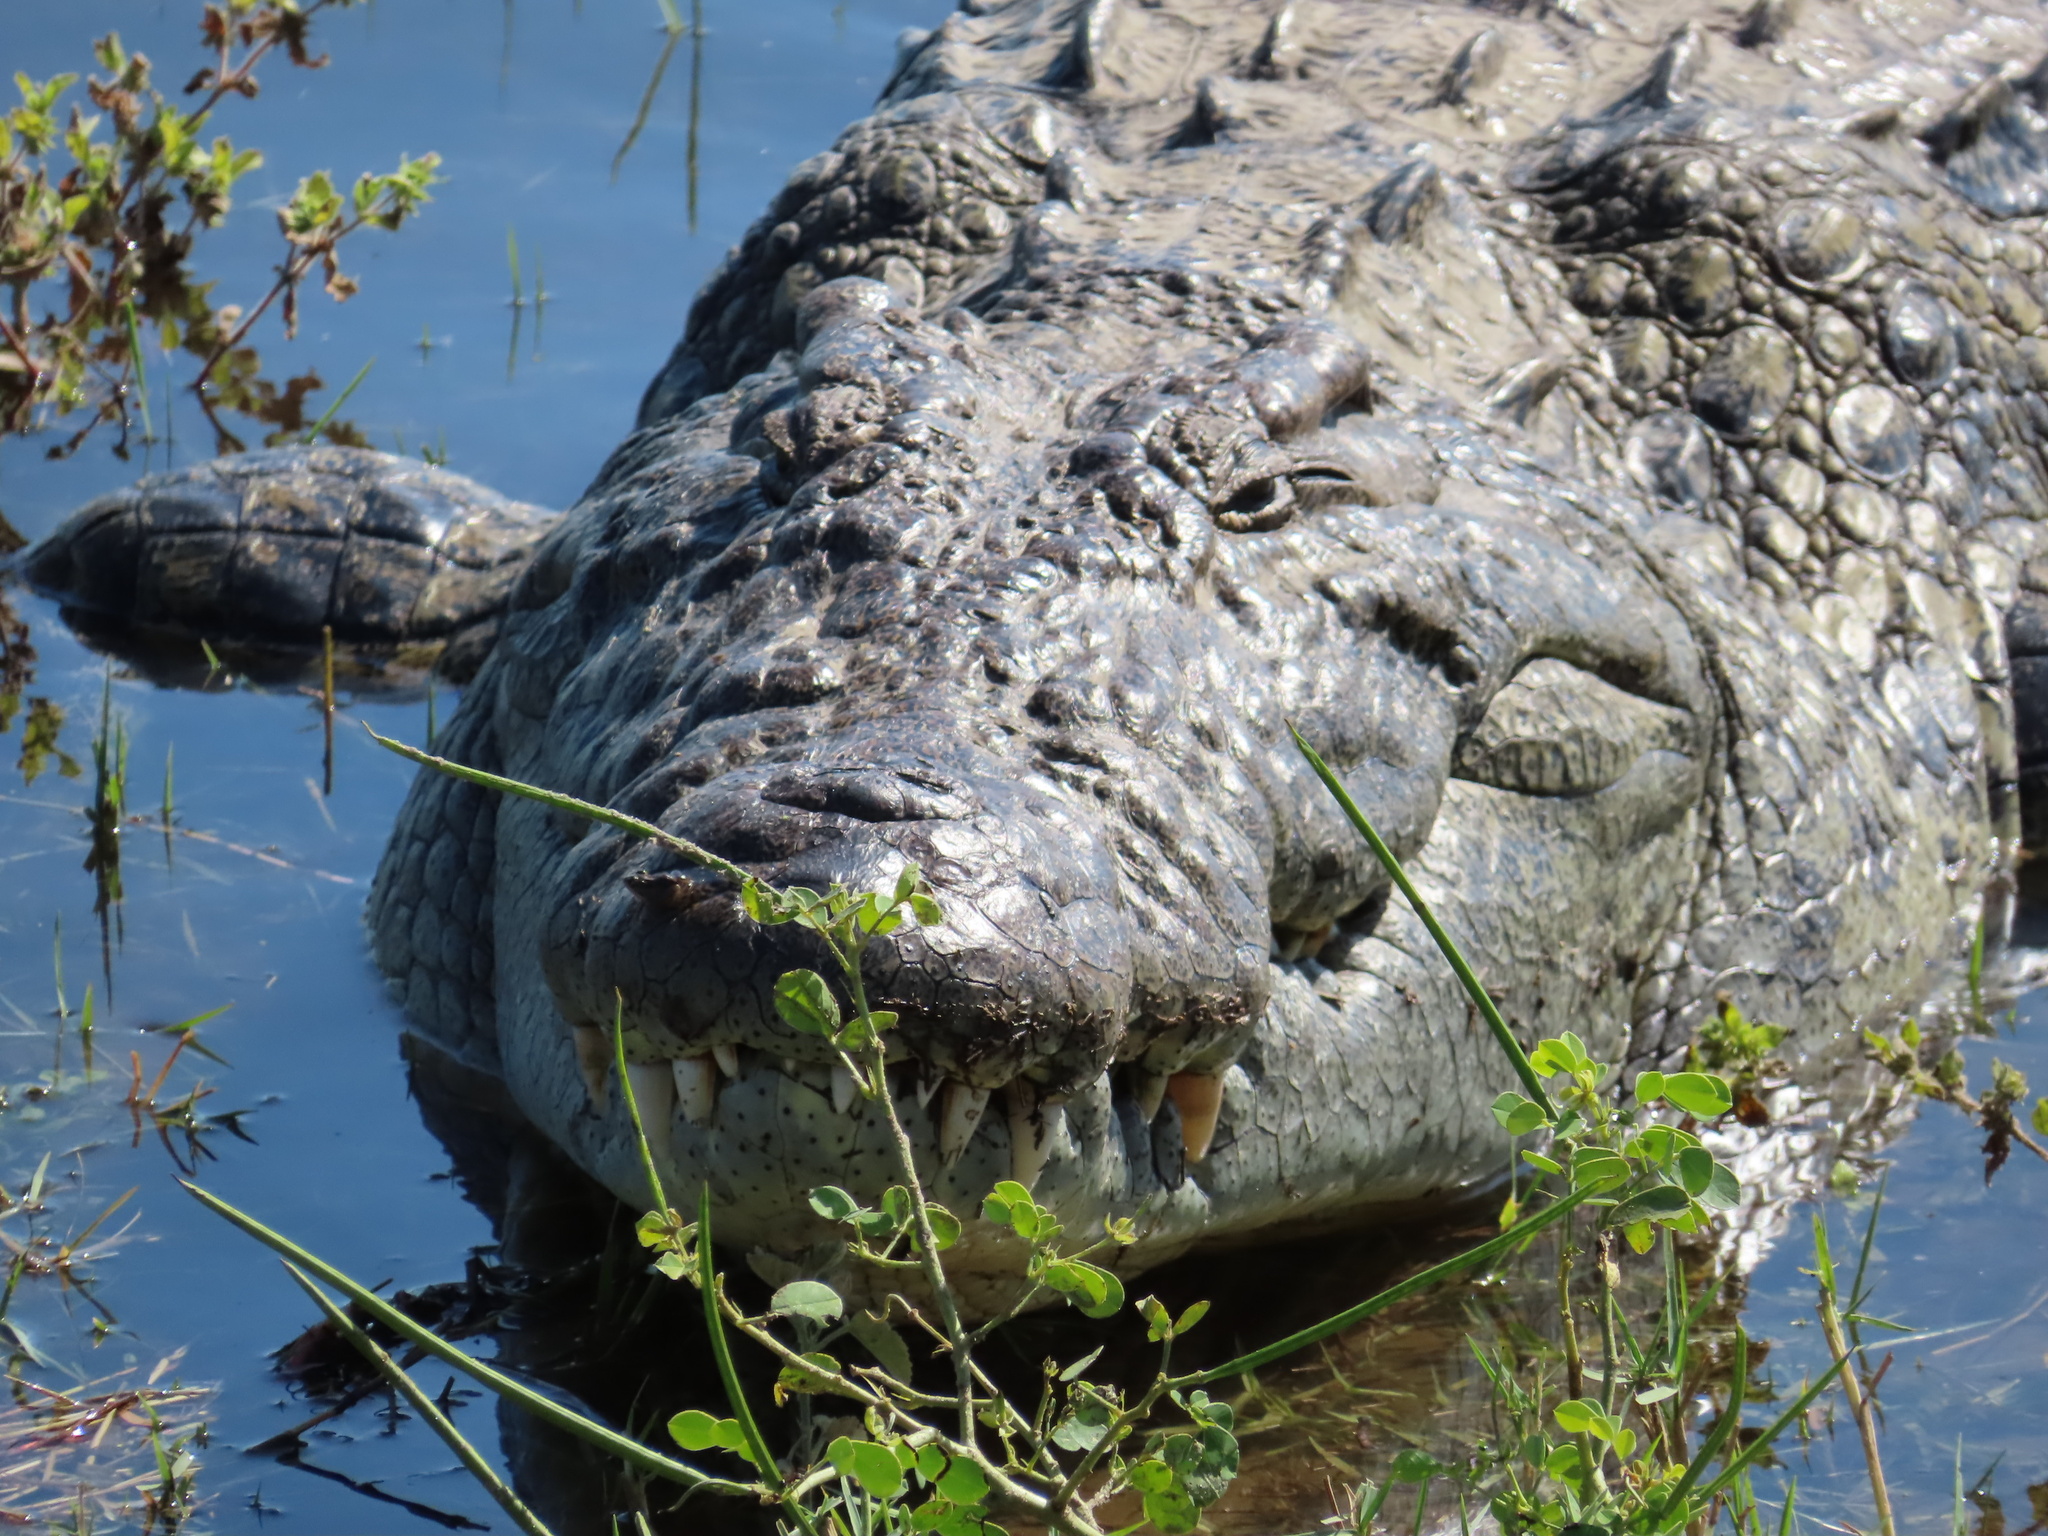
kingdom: Animalia
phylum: Chordata
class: Crocodylia
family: Crocodylidae
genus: Crocodylus
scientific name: Crocodylus niloticus
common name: Nile crocodile
